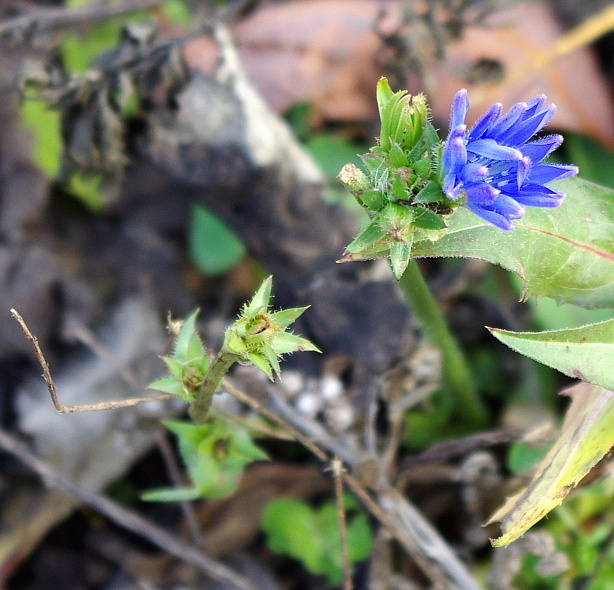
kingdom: Plantae
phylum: Tracheophyta
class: Magnoliopsida
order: Asterales
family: Asteraceae
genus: Cichorium
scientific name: Cichorium intybus
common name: Chicory
